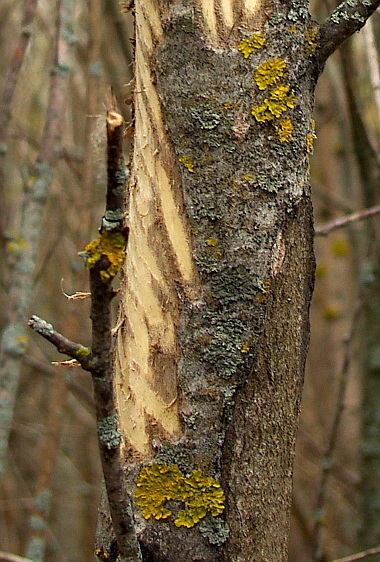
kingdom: Fungi
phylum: Ascomycota
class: Lecanoromycetes
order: Teloschistales
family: Teloschistaceae
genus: Xanthoria
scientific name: Xanthoria parietina
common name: Common orange lichen
